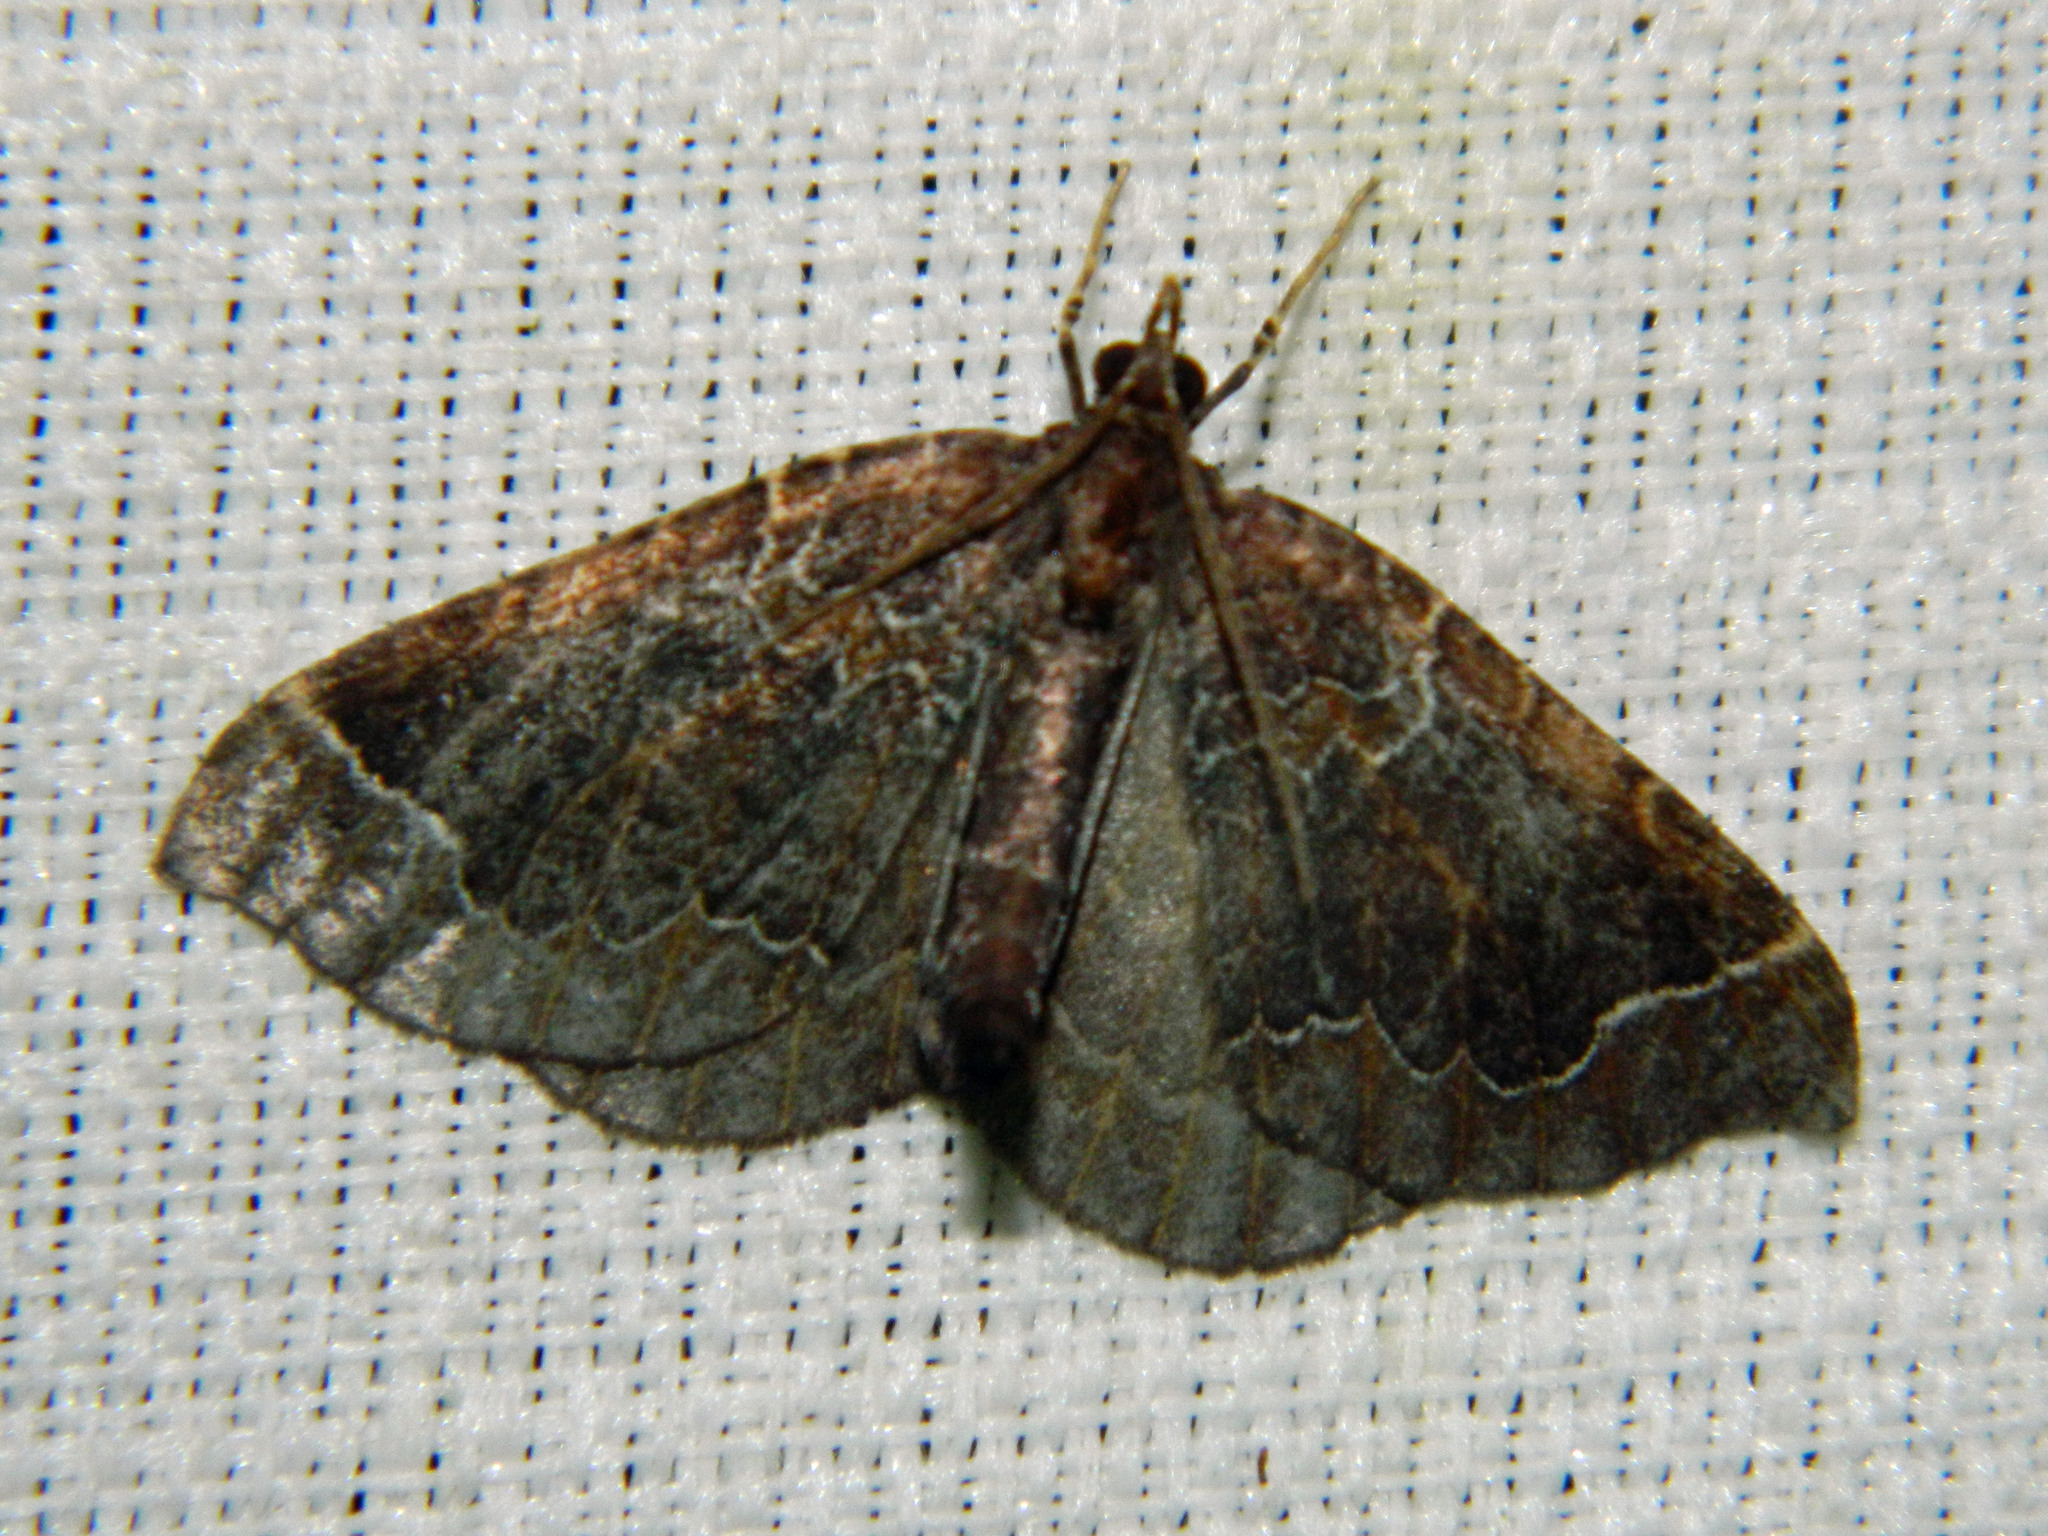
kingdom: Animalia
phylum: Arthropoda
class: Insecta
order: Lepidoptera
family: Geometridae
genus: Eulithis
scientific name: Eulithis flavibrunneata
